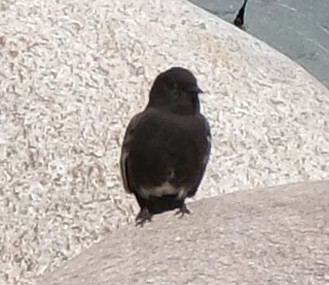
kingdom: Animalia
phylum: Chordata
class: Aves
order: Passeriformes
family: Tyrannidae
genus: Sayornis
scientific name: Sayornis nigricans
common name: Black phoebe
